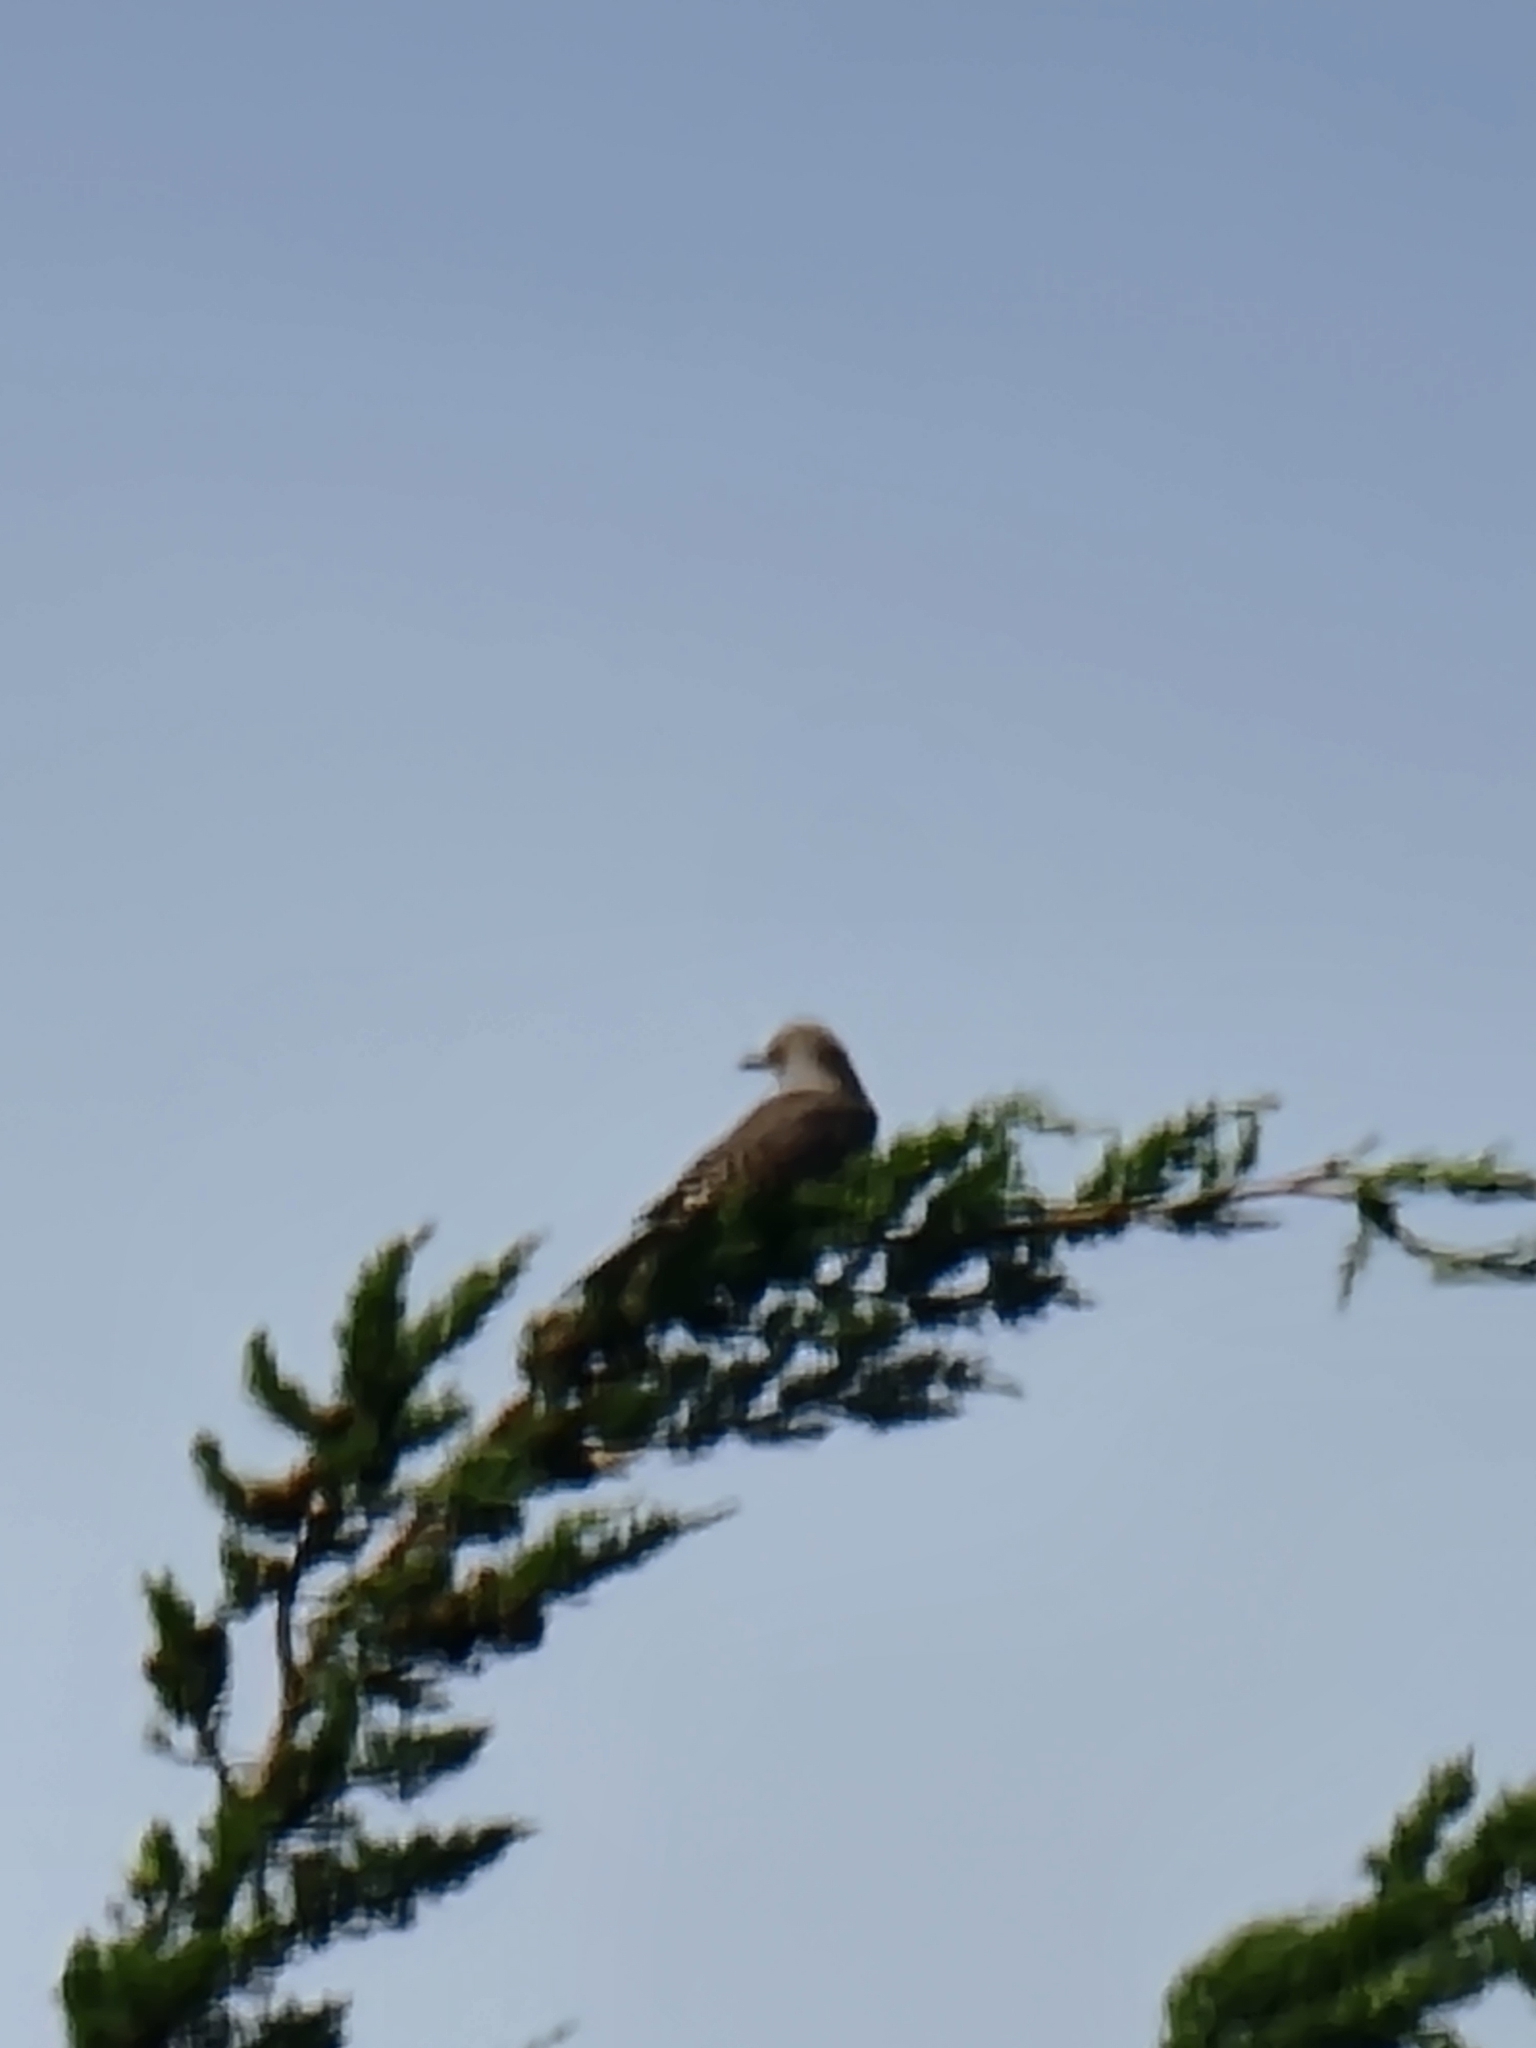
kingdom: Animalia
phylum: Chordata
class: Aves
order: Piciformes
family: Picidae
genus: Colaptes
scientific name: Colaptes auratus
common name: Northern flicker
